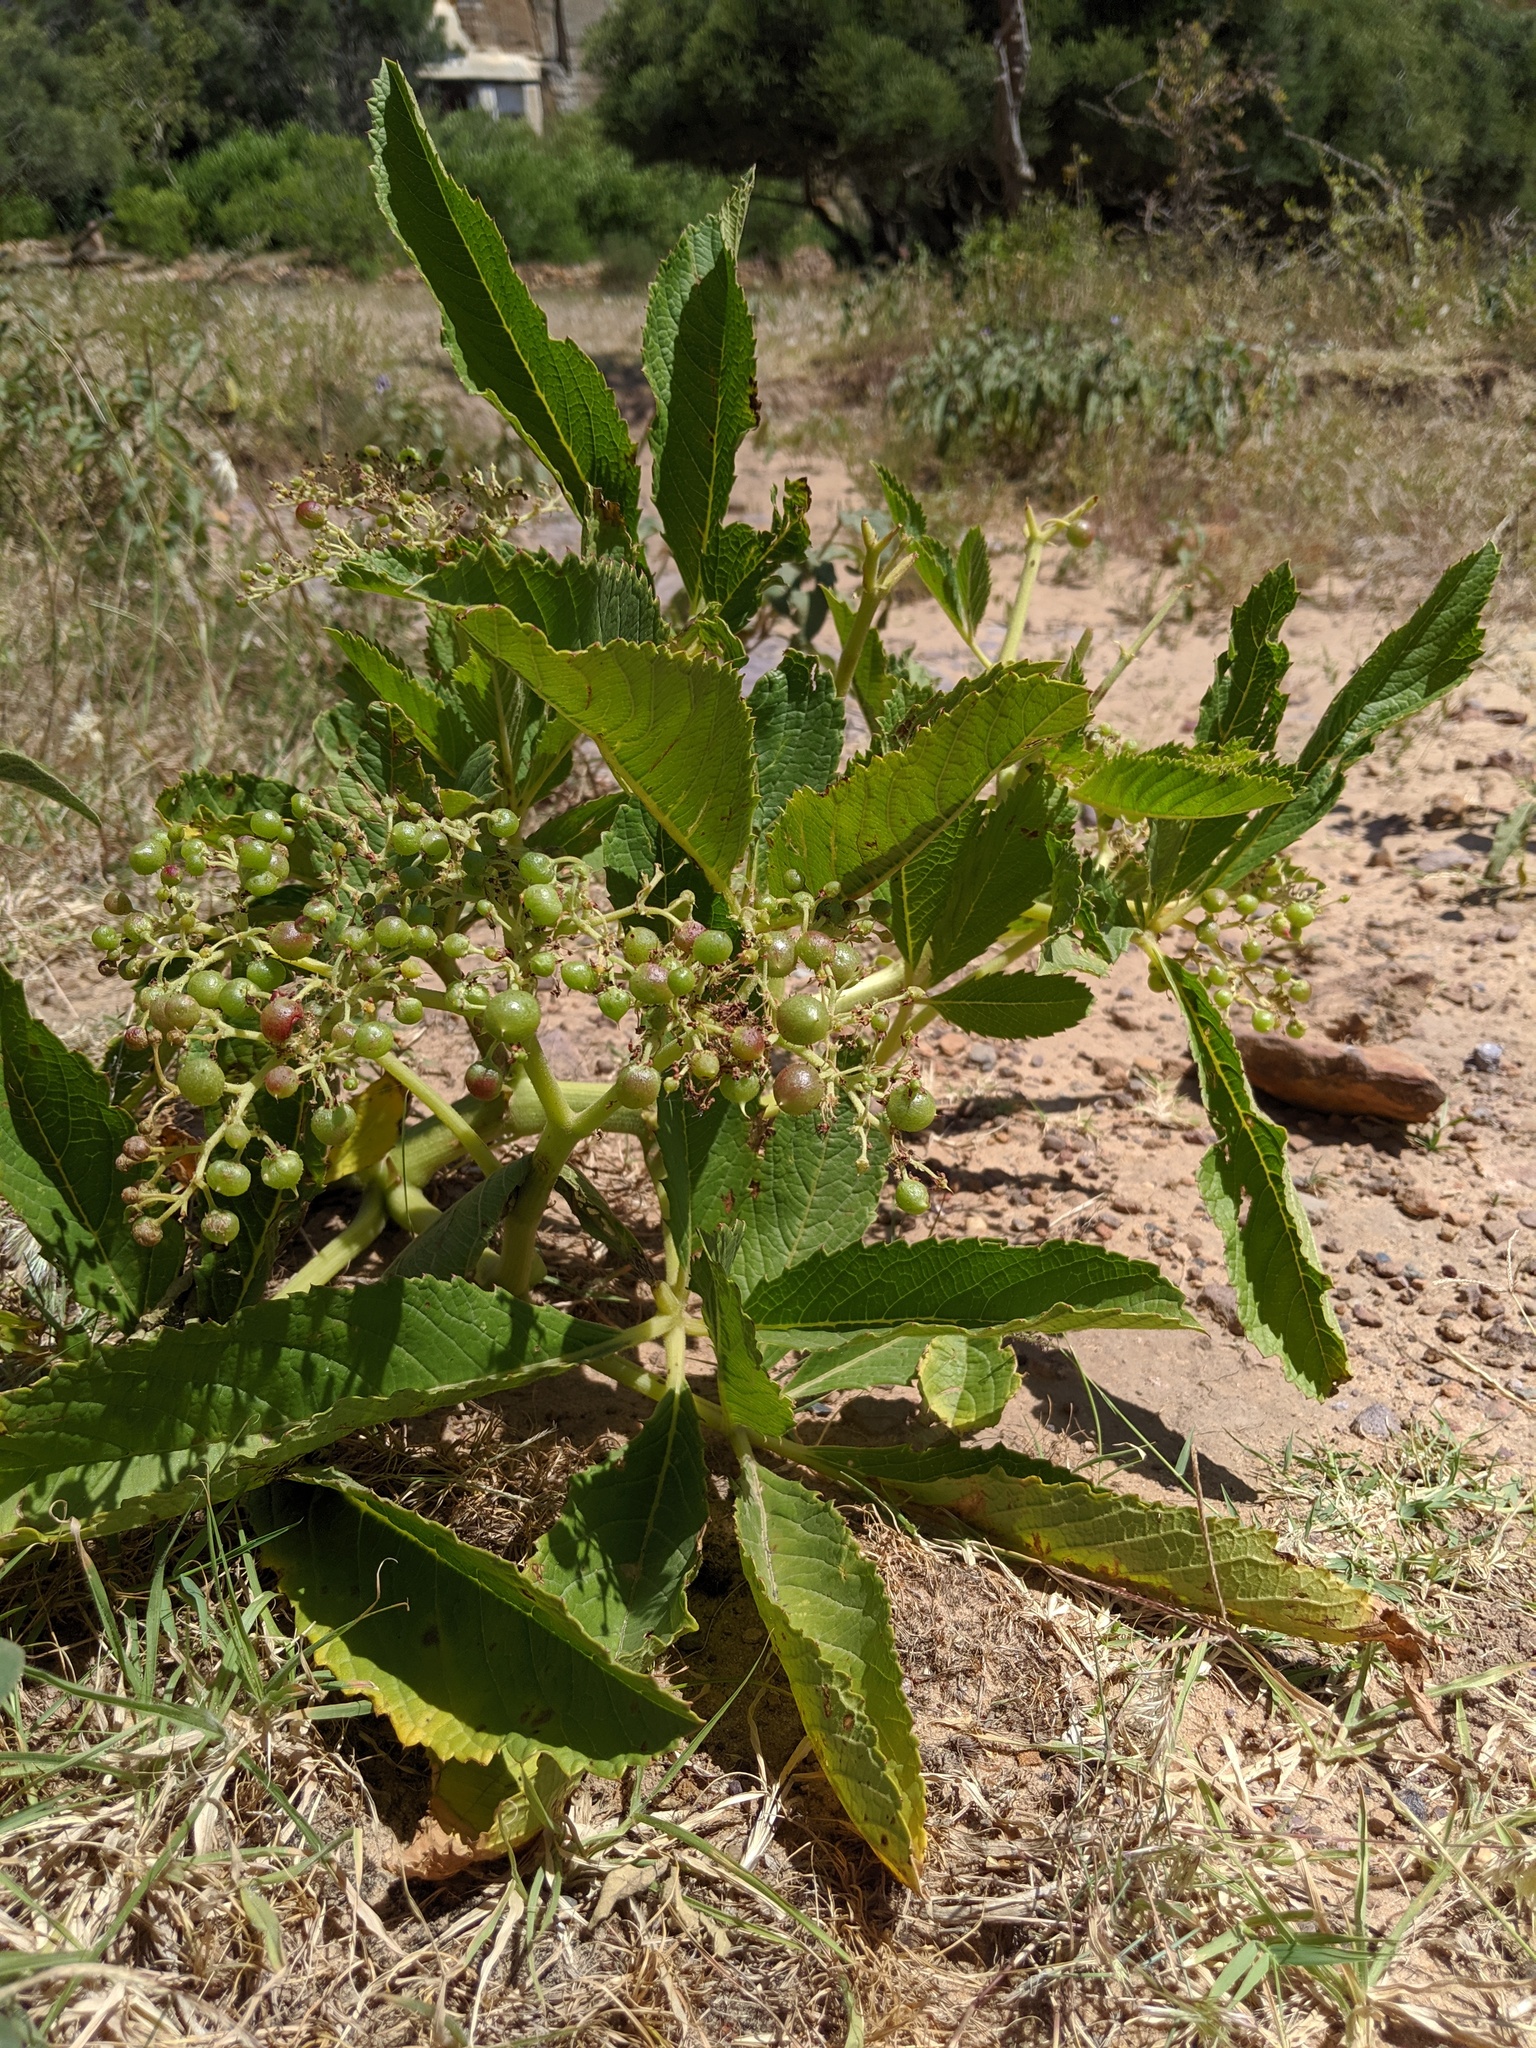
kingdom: Plantae
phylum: Tracheophyta
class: Magnoliopsida
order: Vitales
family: Vitaceae
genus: Cyphostemma
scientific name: Cyphostemma adenanthum
